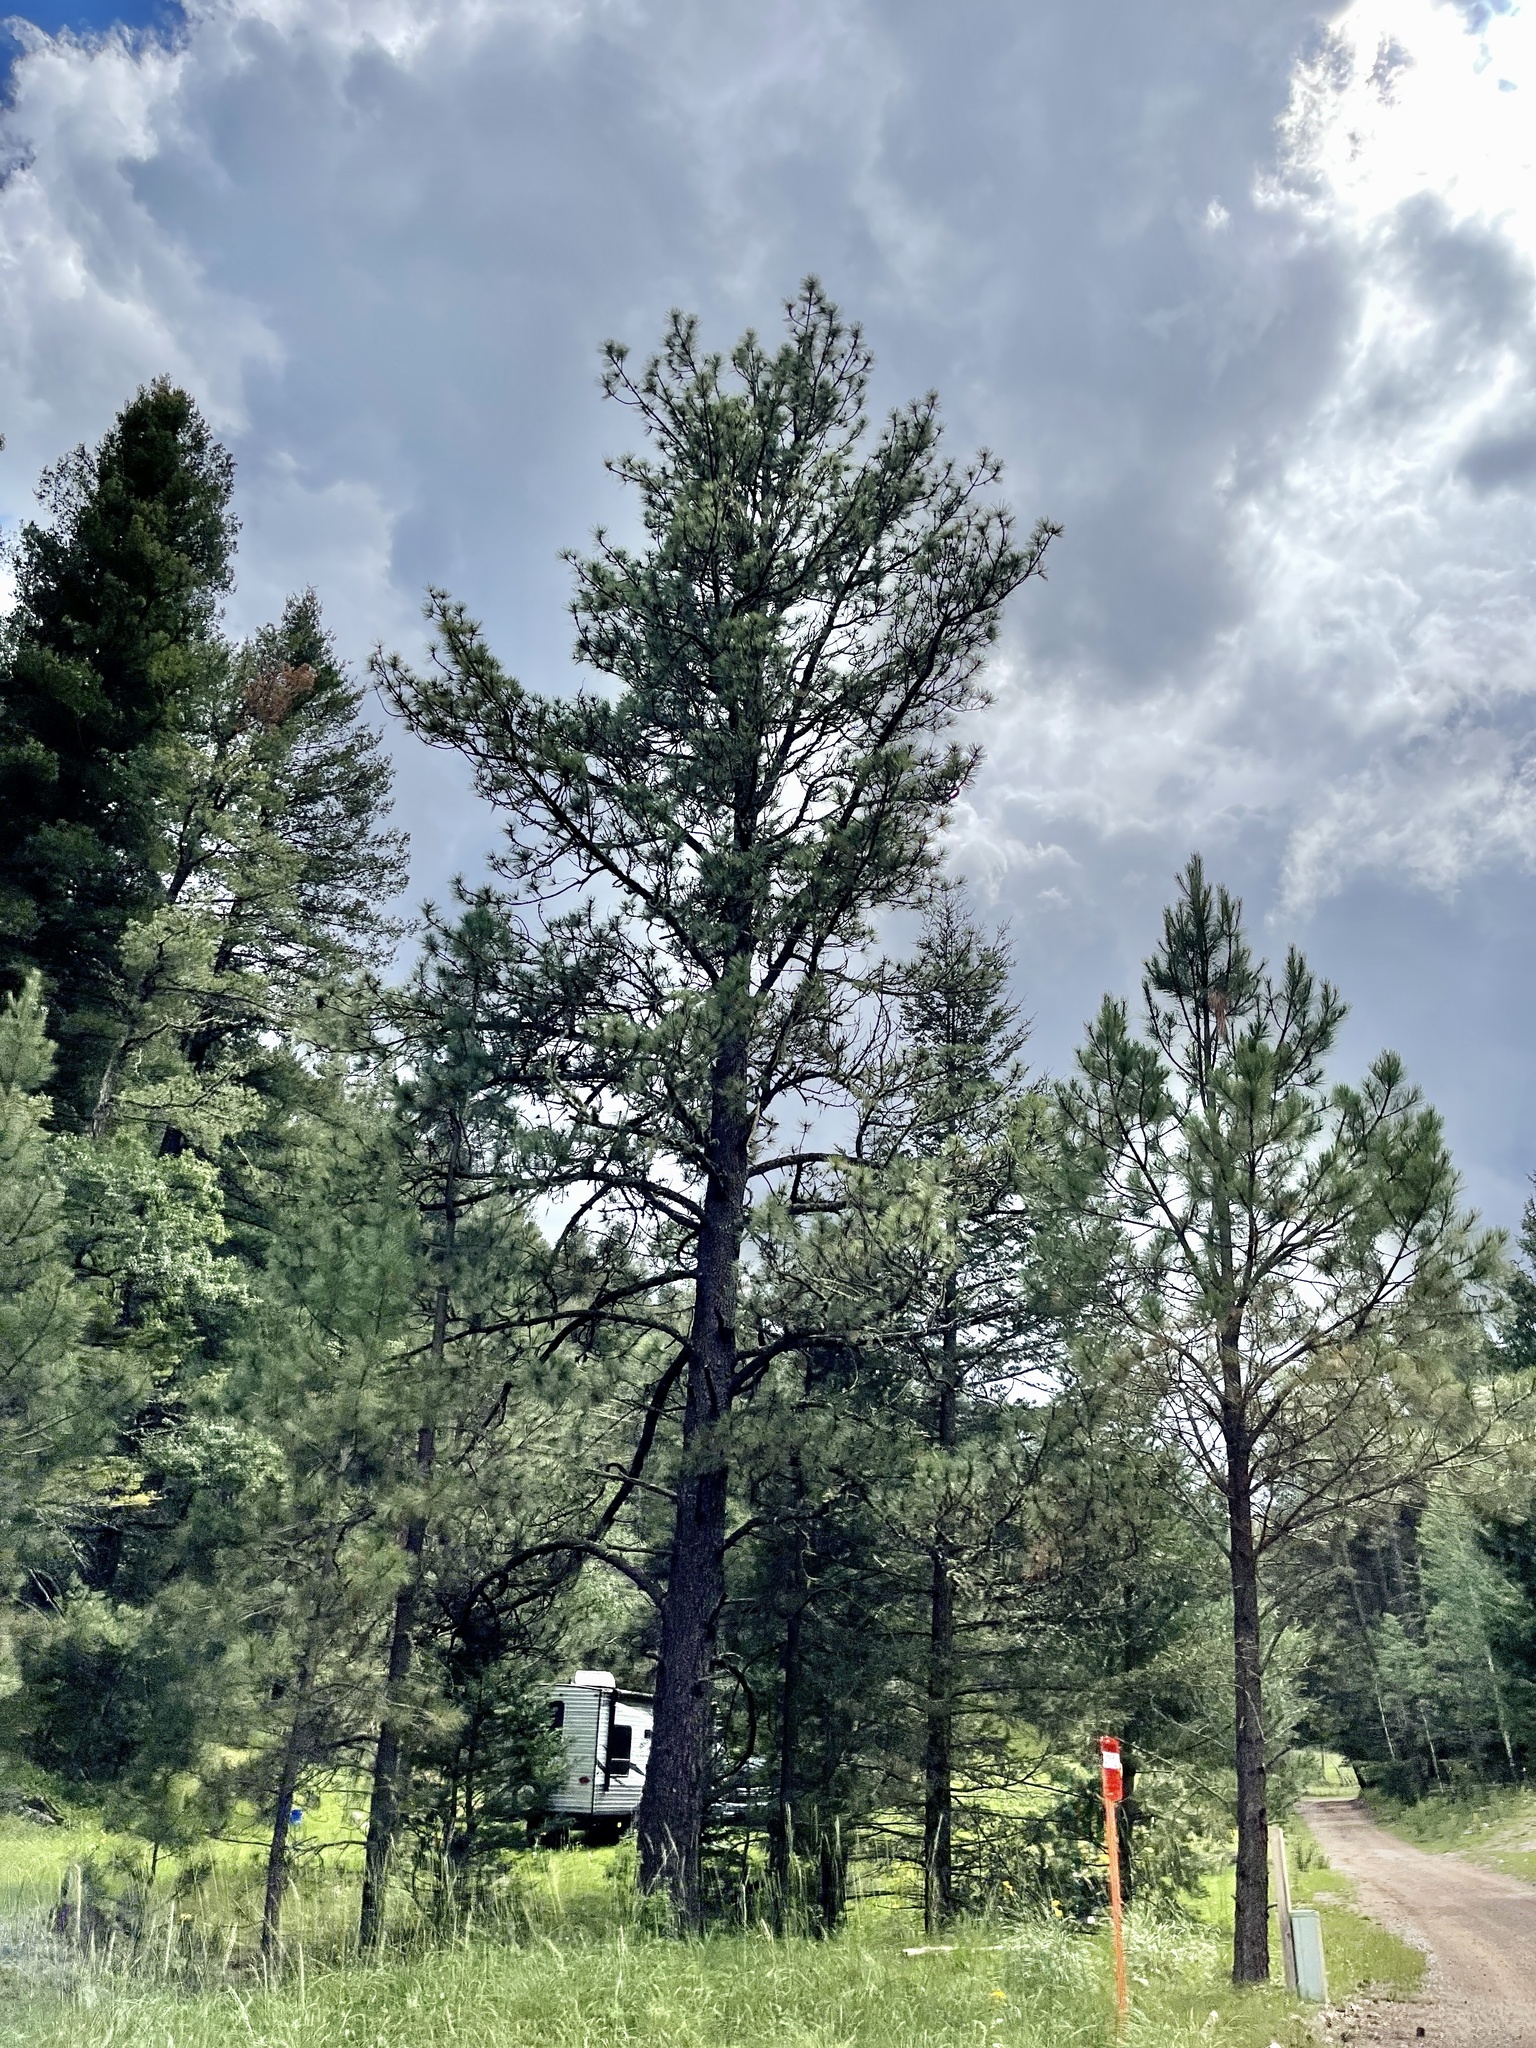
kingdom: Plantae
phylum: Tracheophyta
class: Pinopsida
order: Pinales
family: Pinaceae
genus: Pinus
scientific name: Pinus ponderosa
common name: Western yellow-pine
